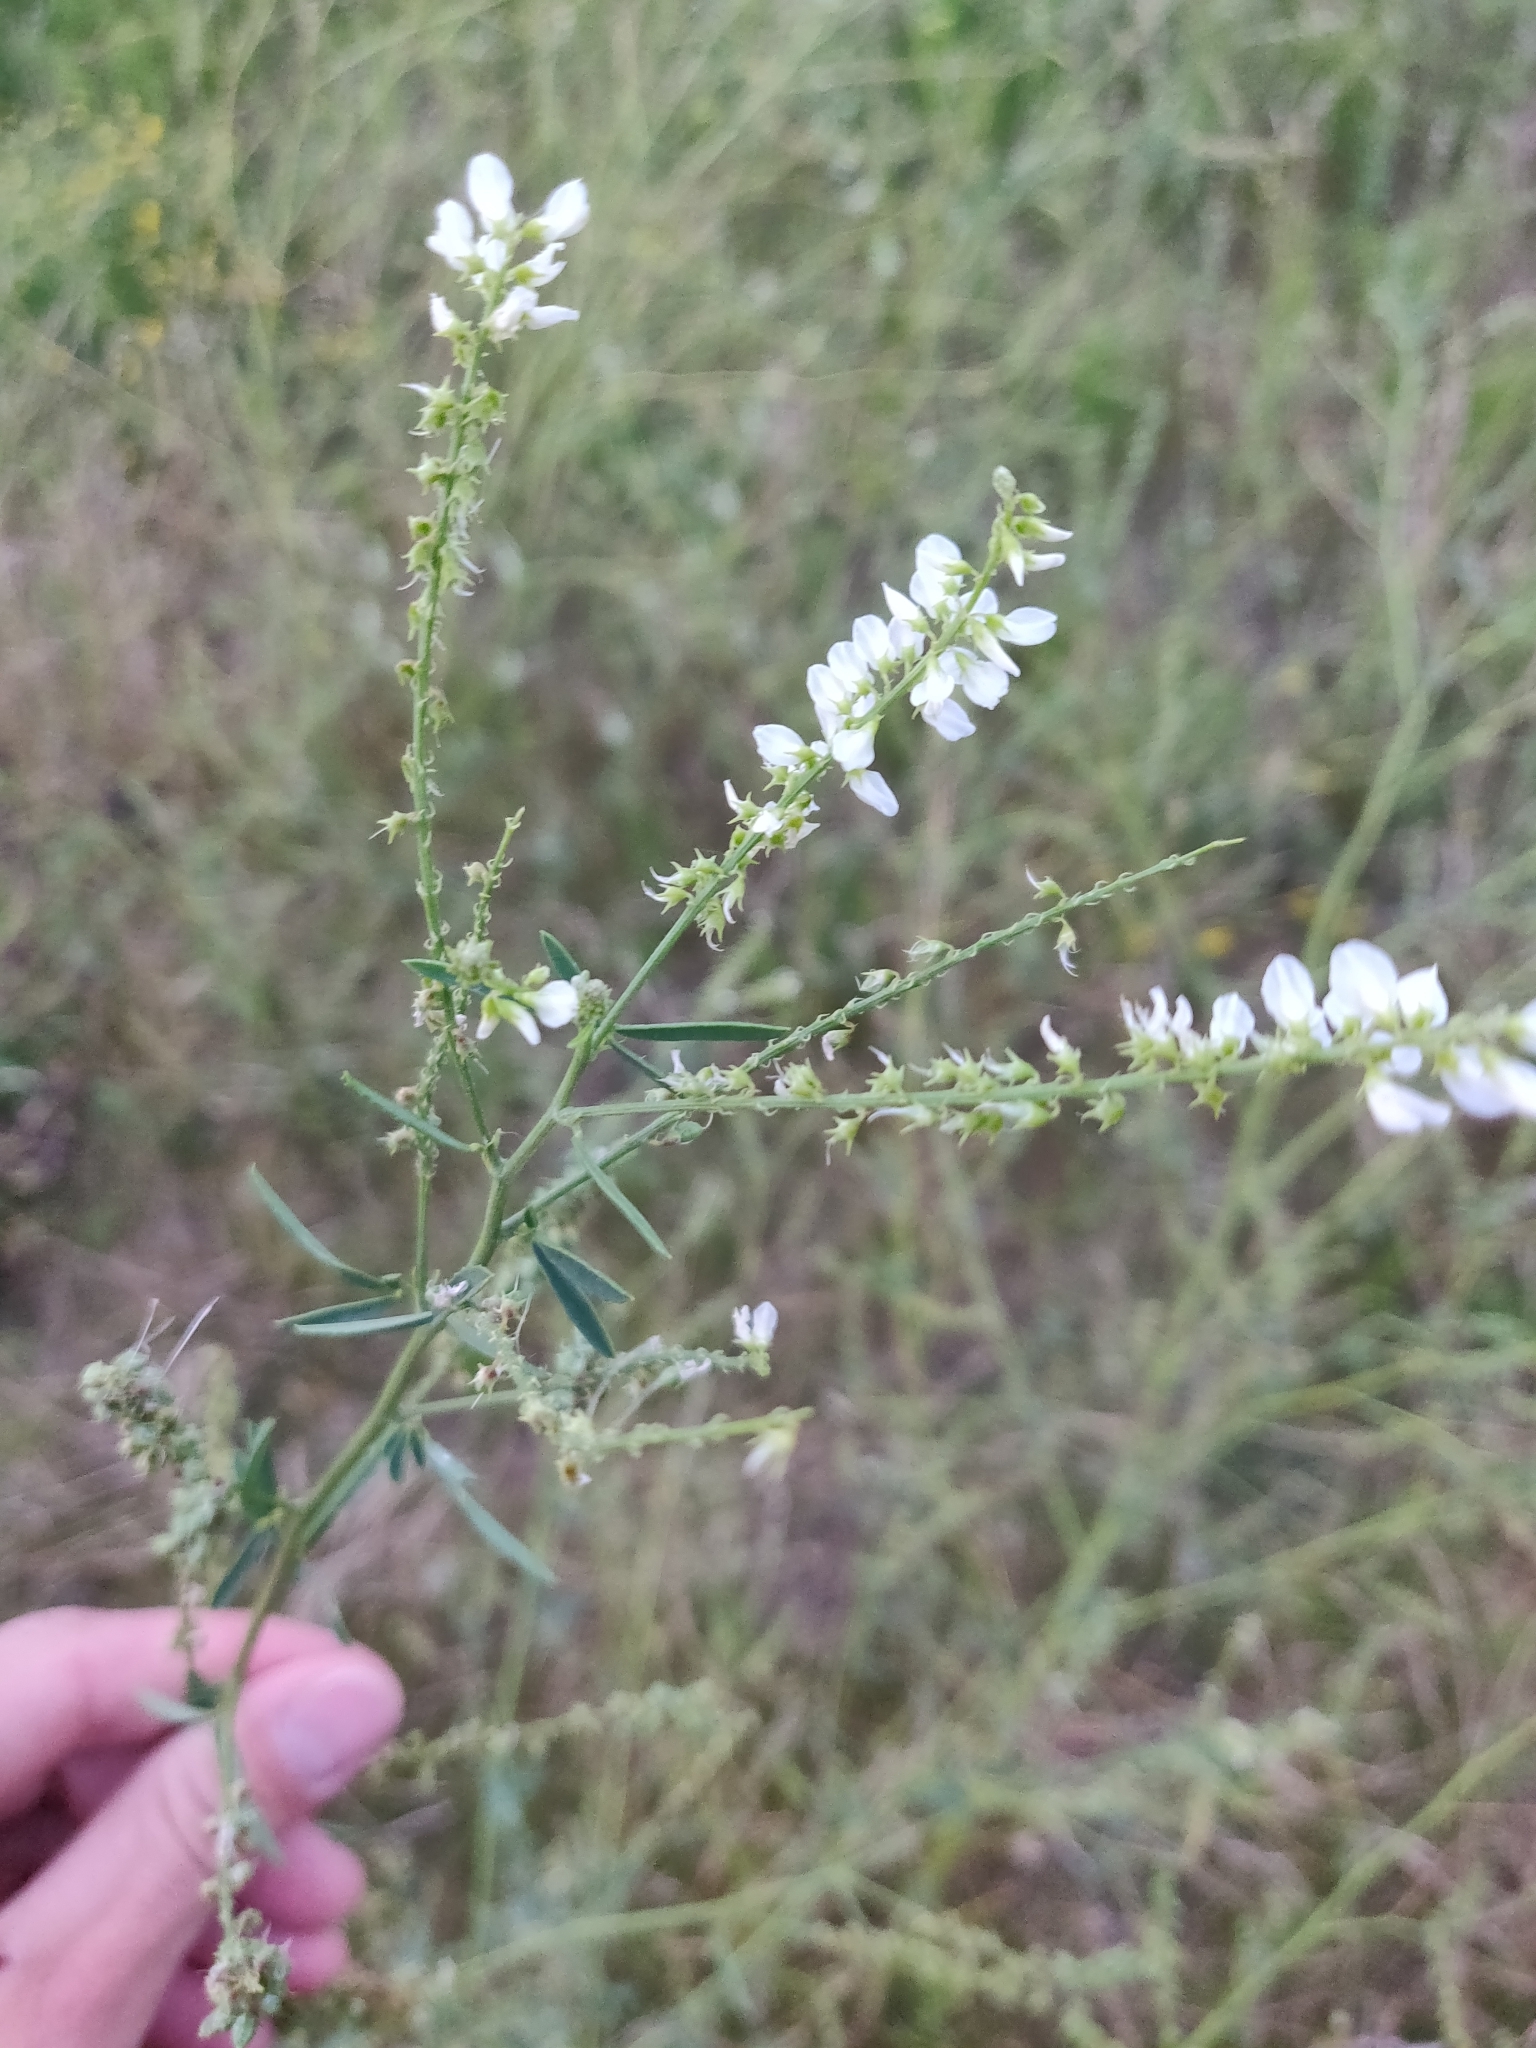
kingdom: Plantae
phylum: Tracheophyta
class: Magnoliopsida
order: Fabales
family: Fabaceae
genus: Melilotus
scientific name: Melilotus albus
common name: White melilot
